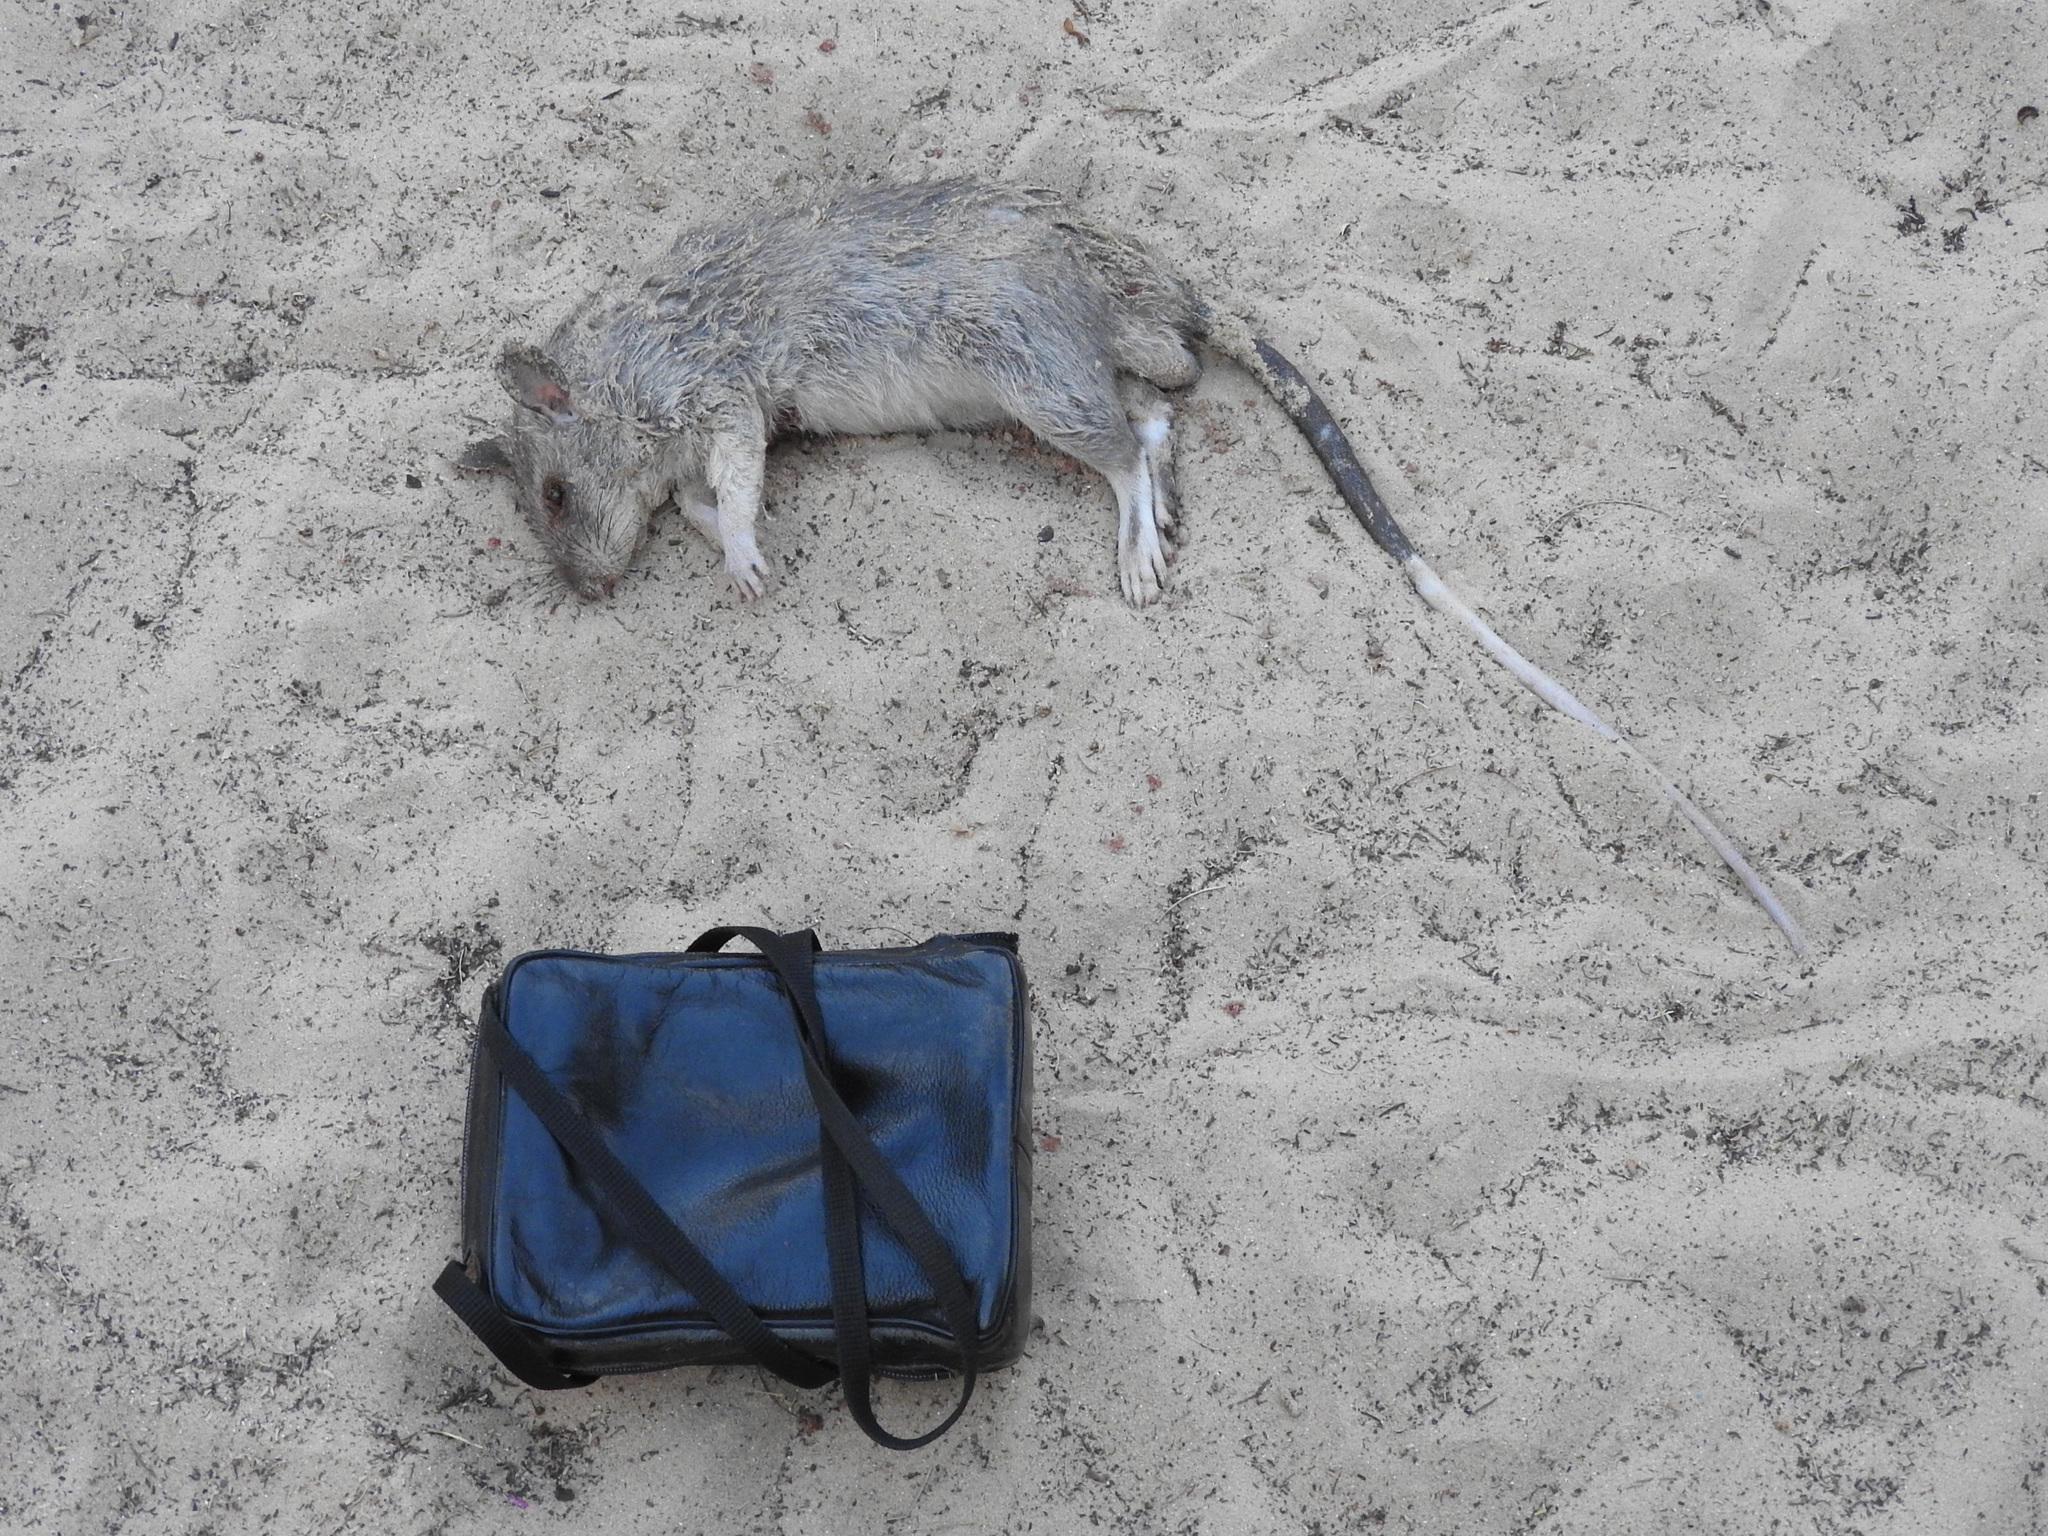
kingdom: Animalia
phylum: Chordata
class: Mammalia
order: Rodentia
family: Nesomyidae
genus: Cricetomys
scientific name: Cricetomys gambianus
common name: Northern giant pouched rat
